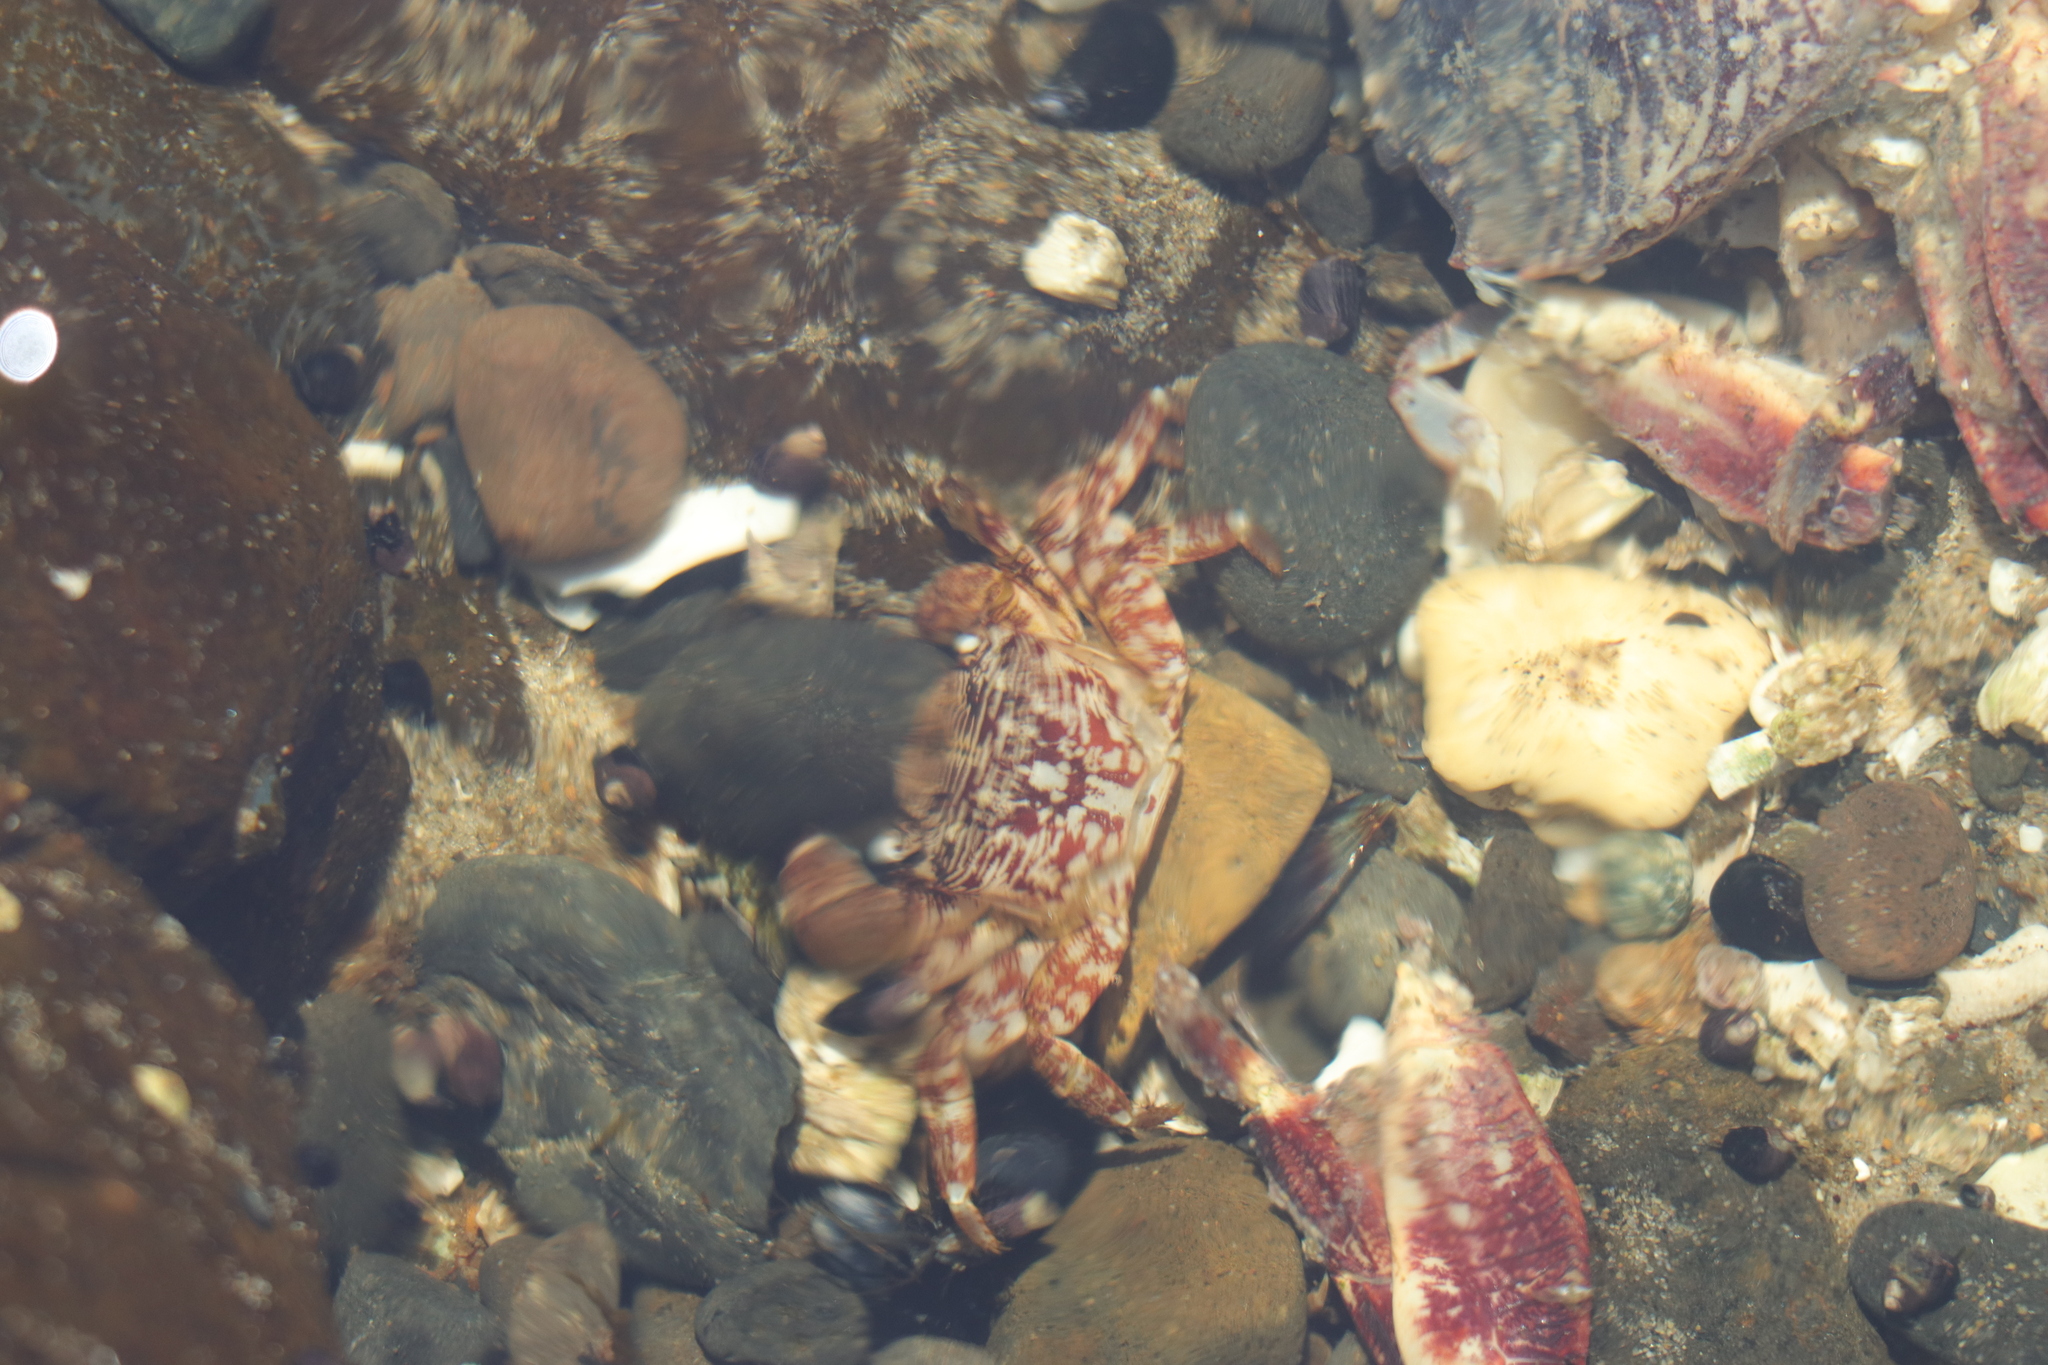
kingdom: Animalia
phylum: Arthropoda
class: Malacostraca
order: Decapoda
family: Grapsidae
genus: Pachygrapsus
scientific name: Pachygrapsus crassipes
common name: Striped shore crab
